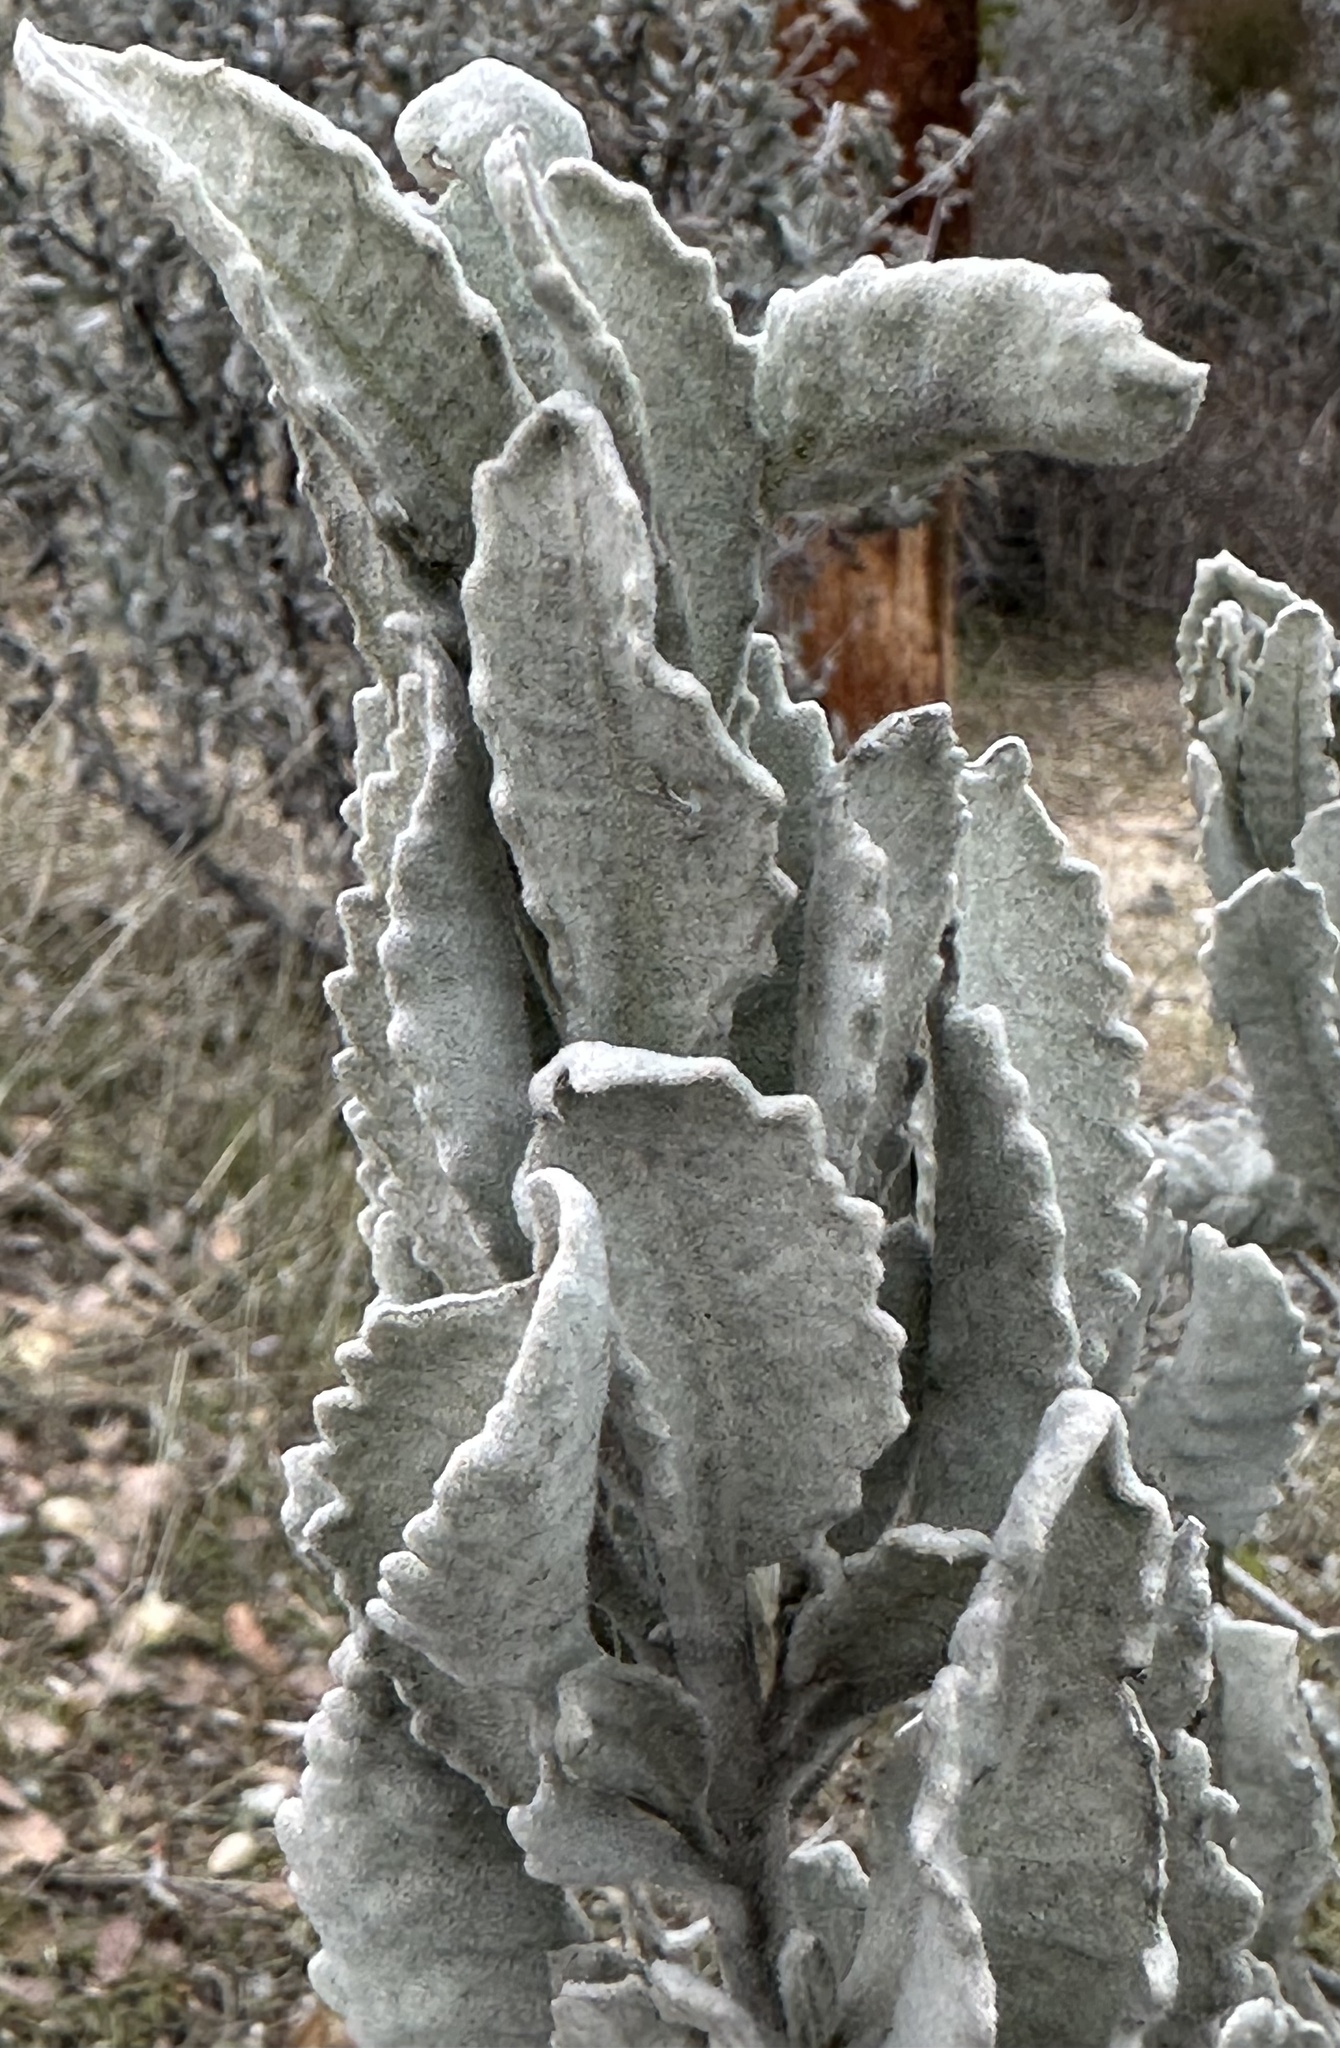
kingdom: Plantae
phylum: Tracheophyta
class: Magnoliopsida
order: Boraginales
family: Namaceae
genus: Eriodictyon
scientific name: Eriodictyon tomentosum
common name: Woolly yerba-santa
